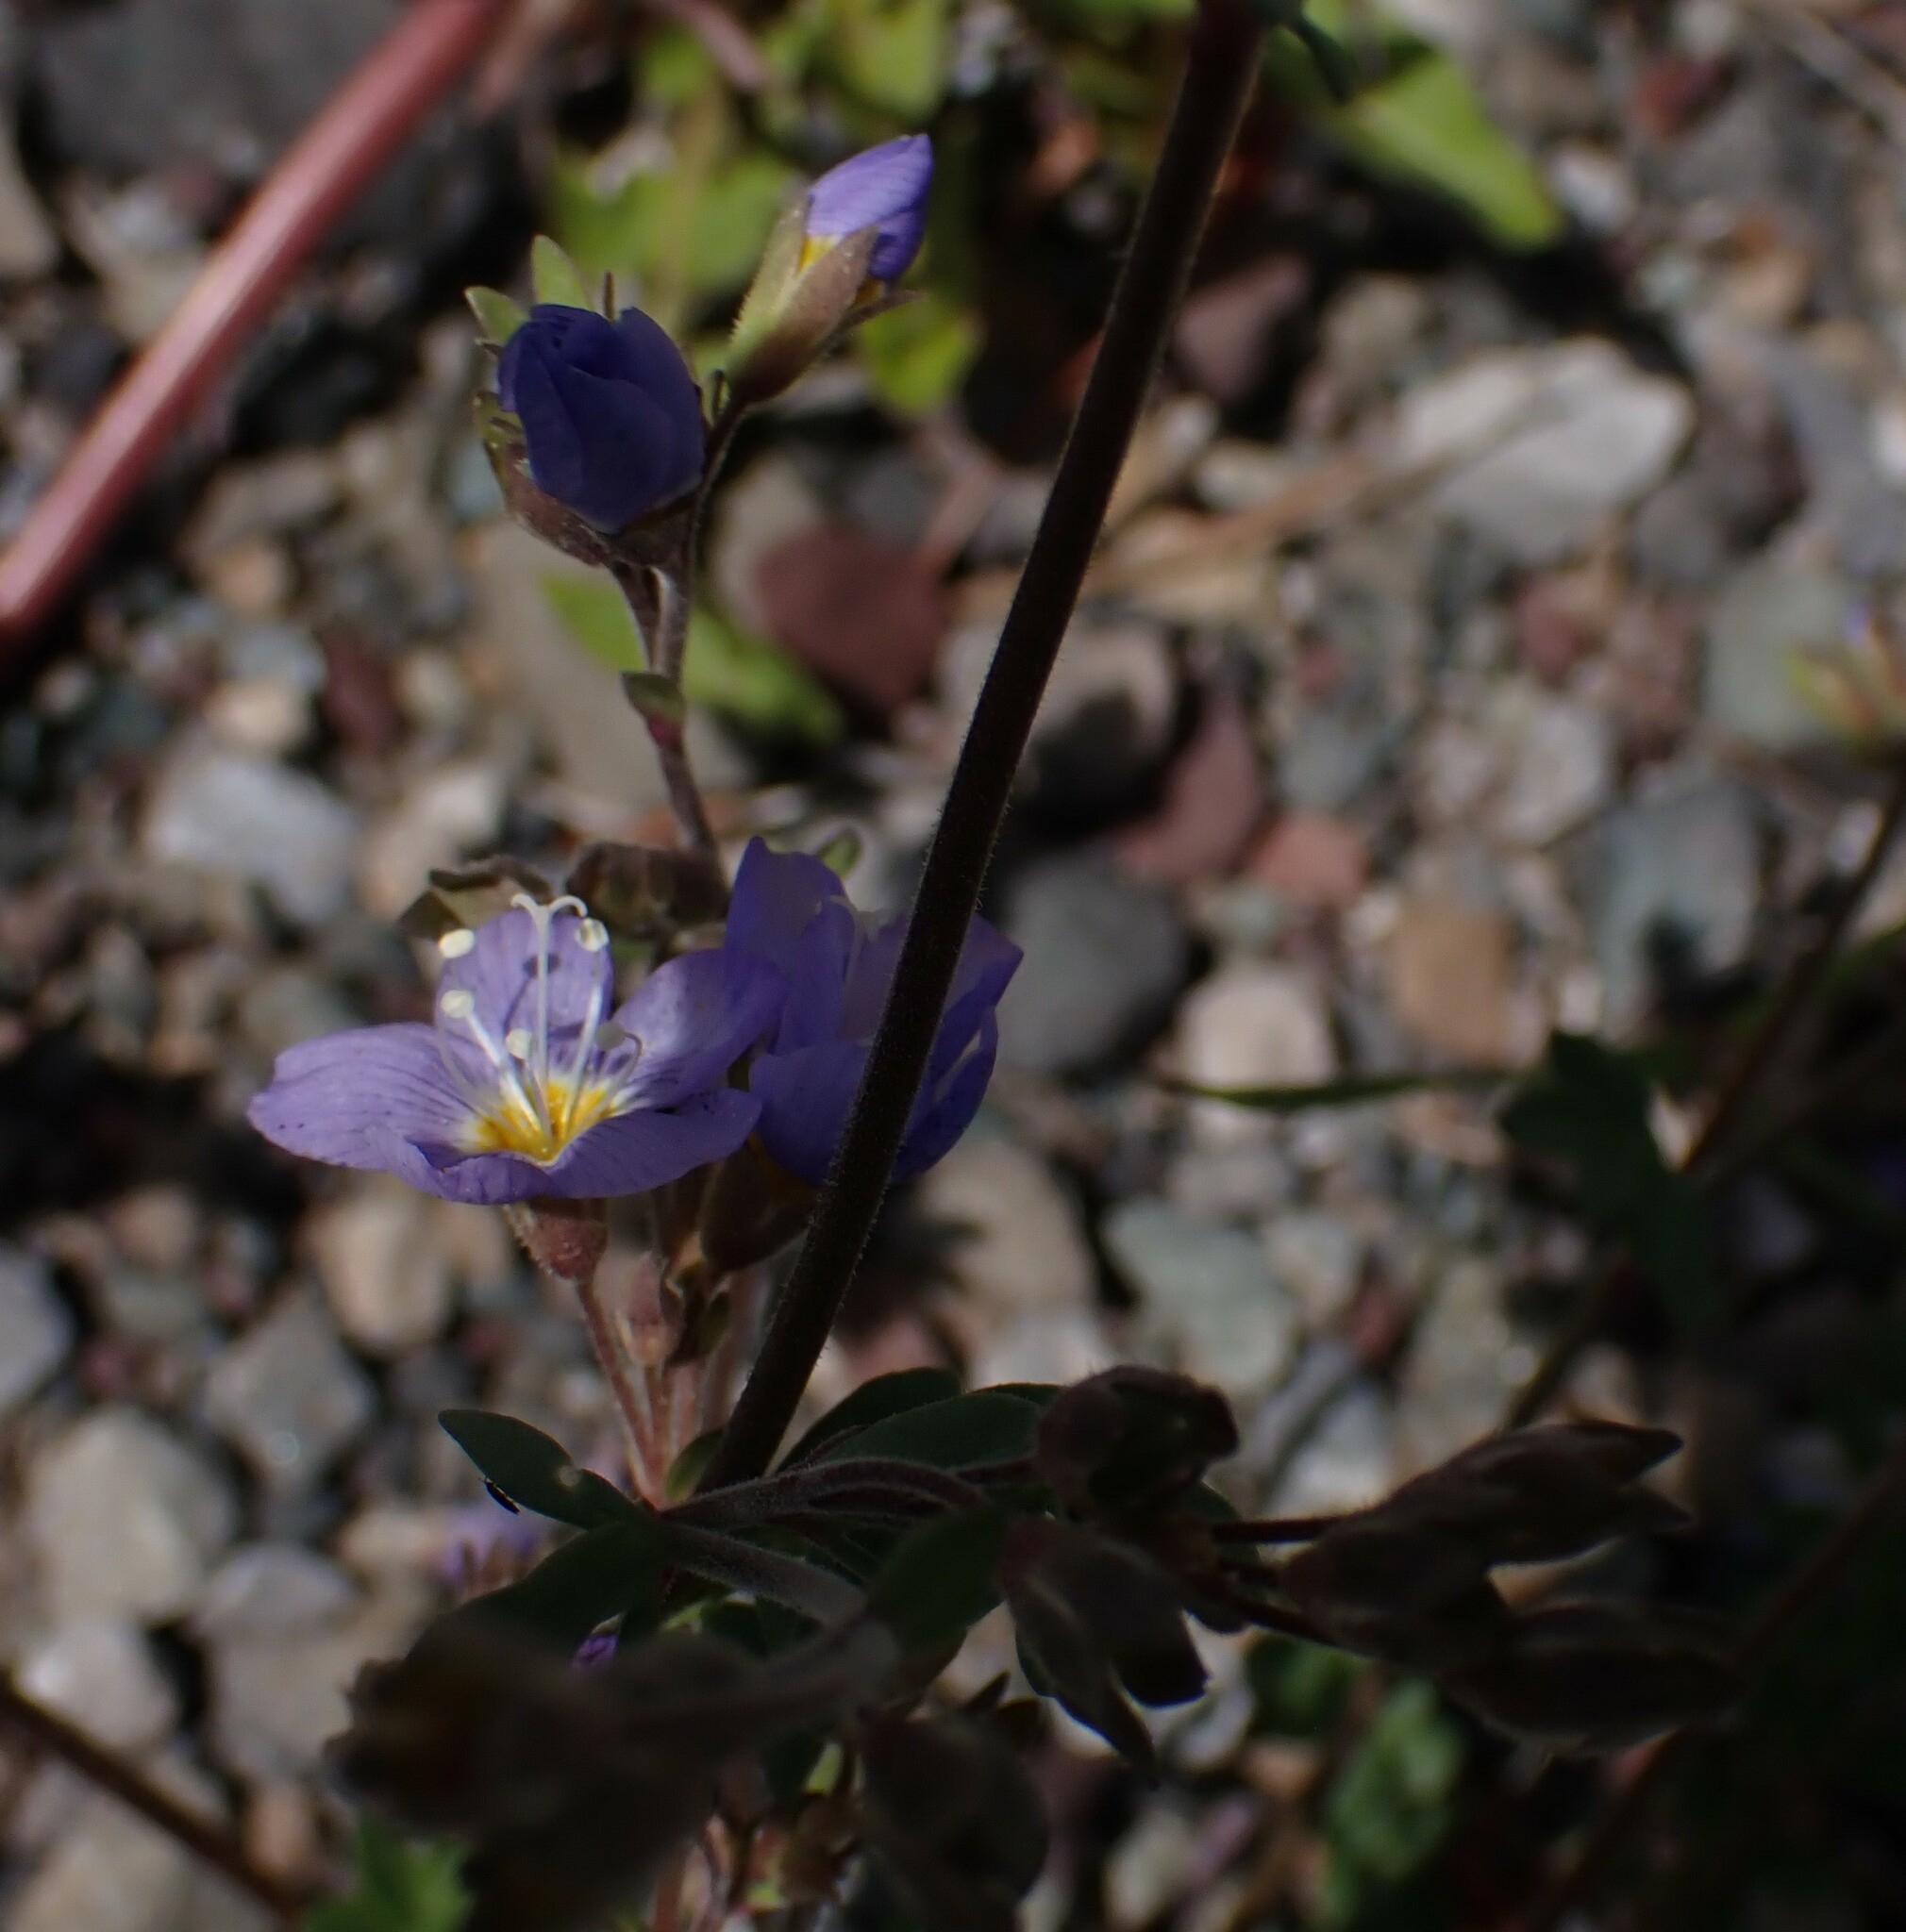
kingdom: Plantae
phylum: Tracheophyta
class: Magnoliopsida
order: Ericales
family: Polemoniaceae
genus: Polemonium
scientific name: Polemonium pulcherrimum
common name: Short jacob's-ladder
